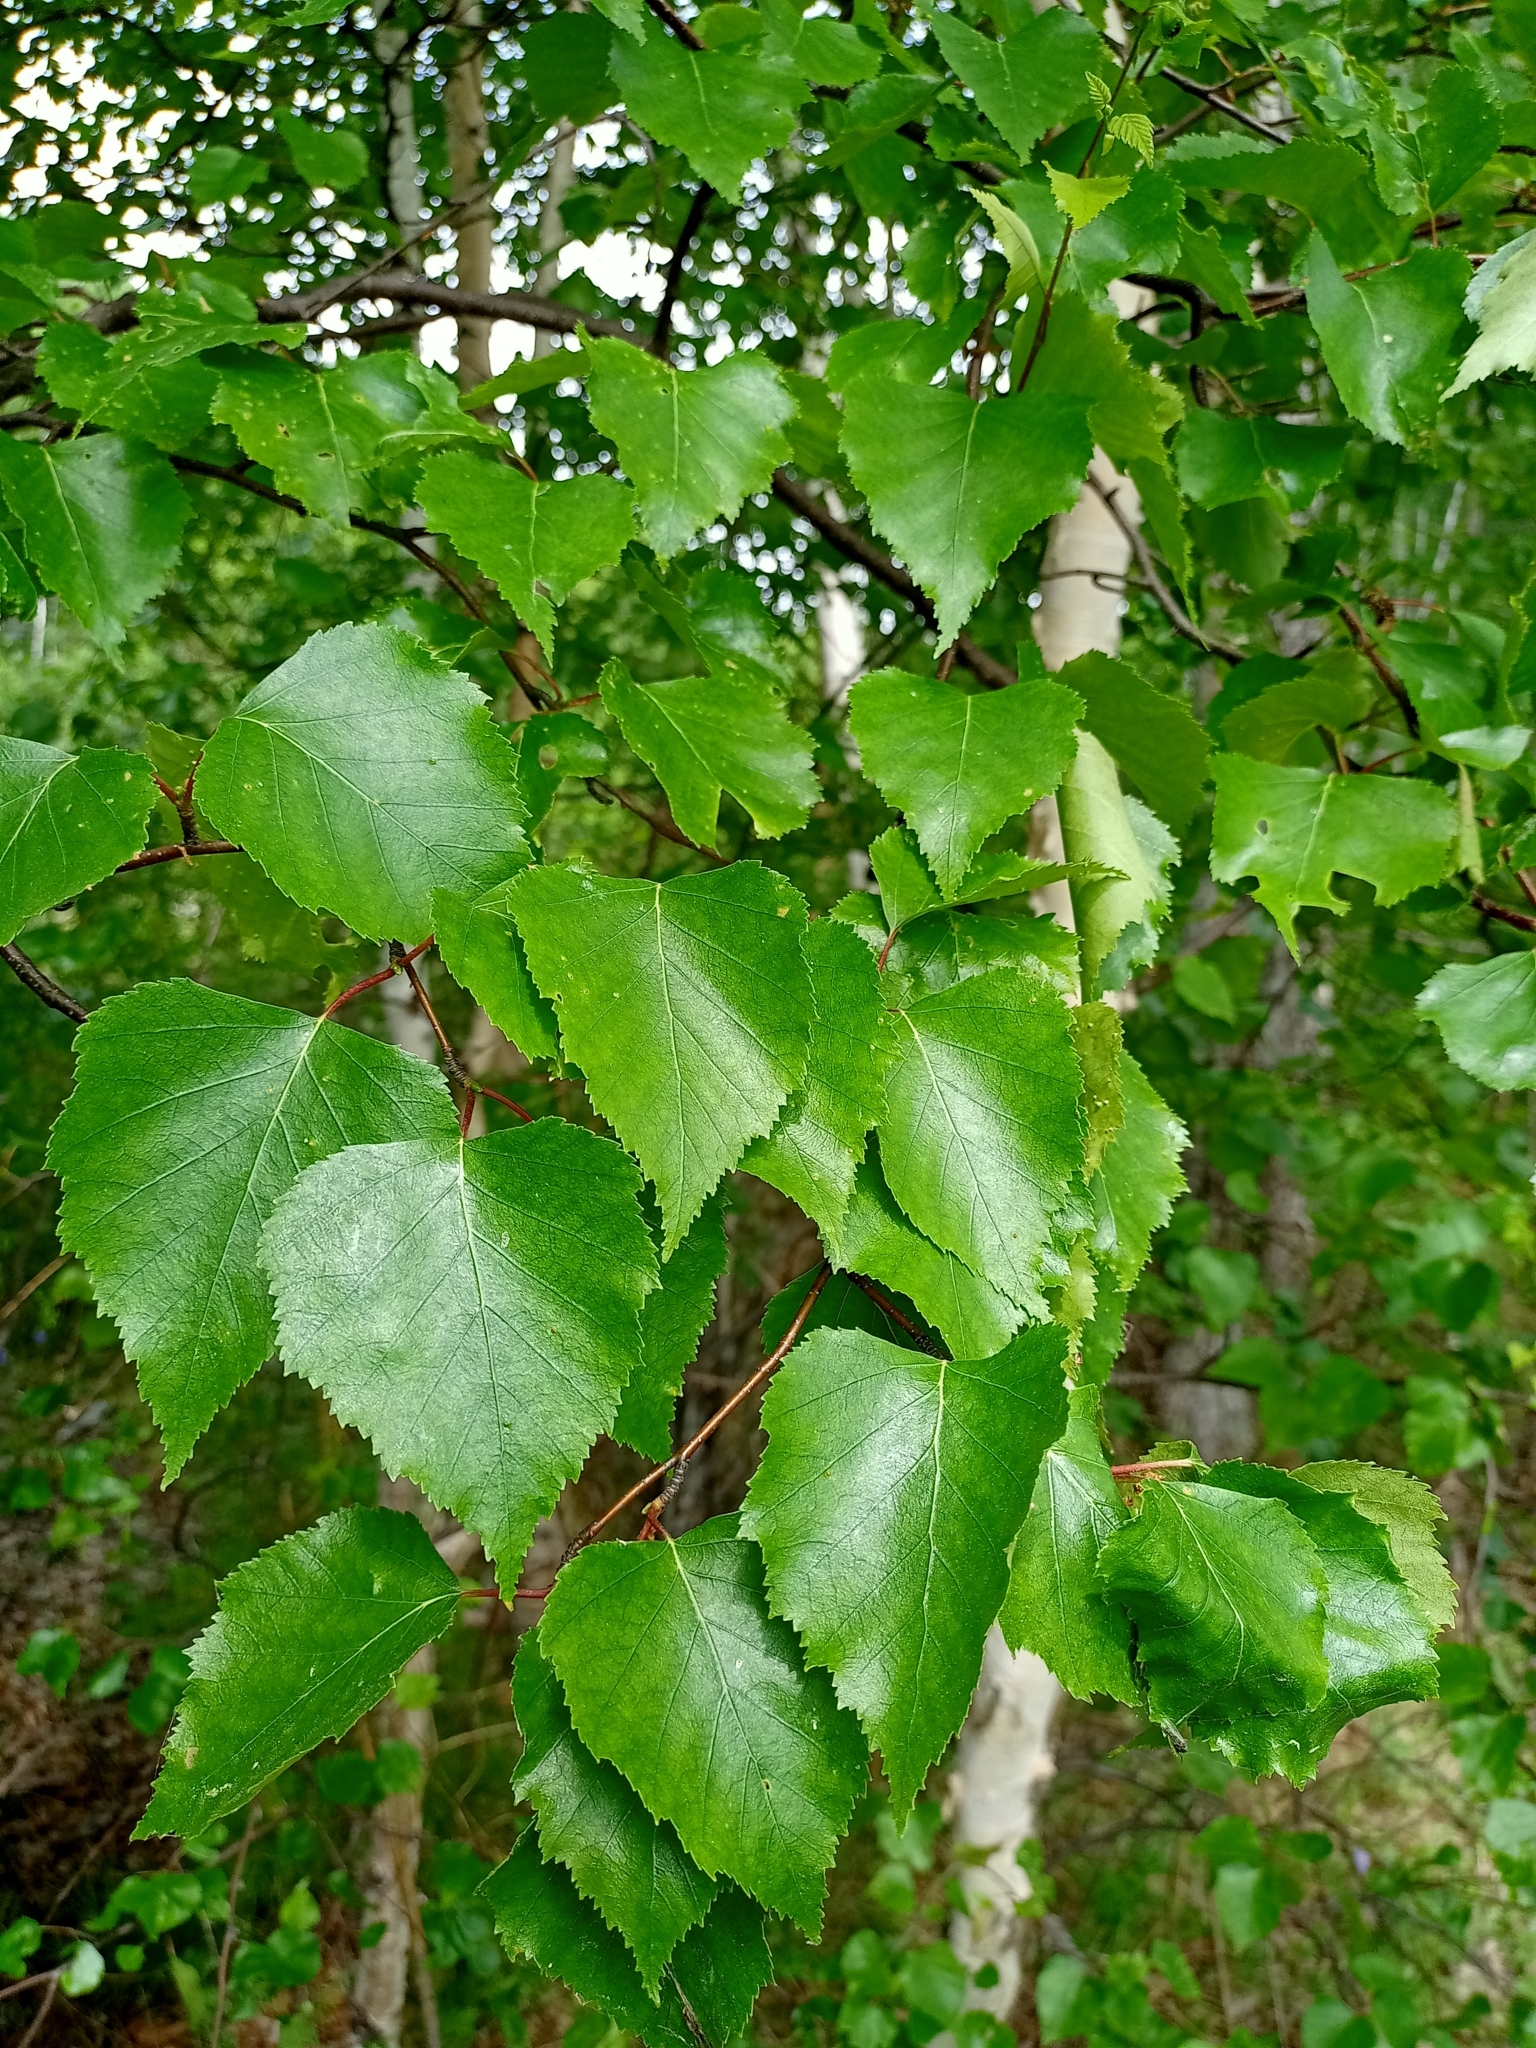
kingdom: Plantae
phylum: Tracheophyta
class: Magnoliopsida
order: Fagales
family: Betulaceae
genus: Betula
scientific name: Betula pendula
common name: Silver birch
